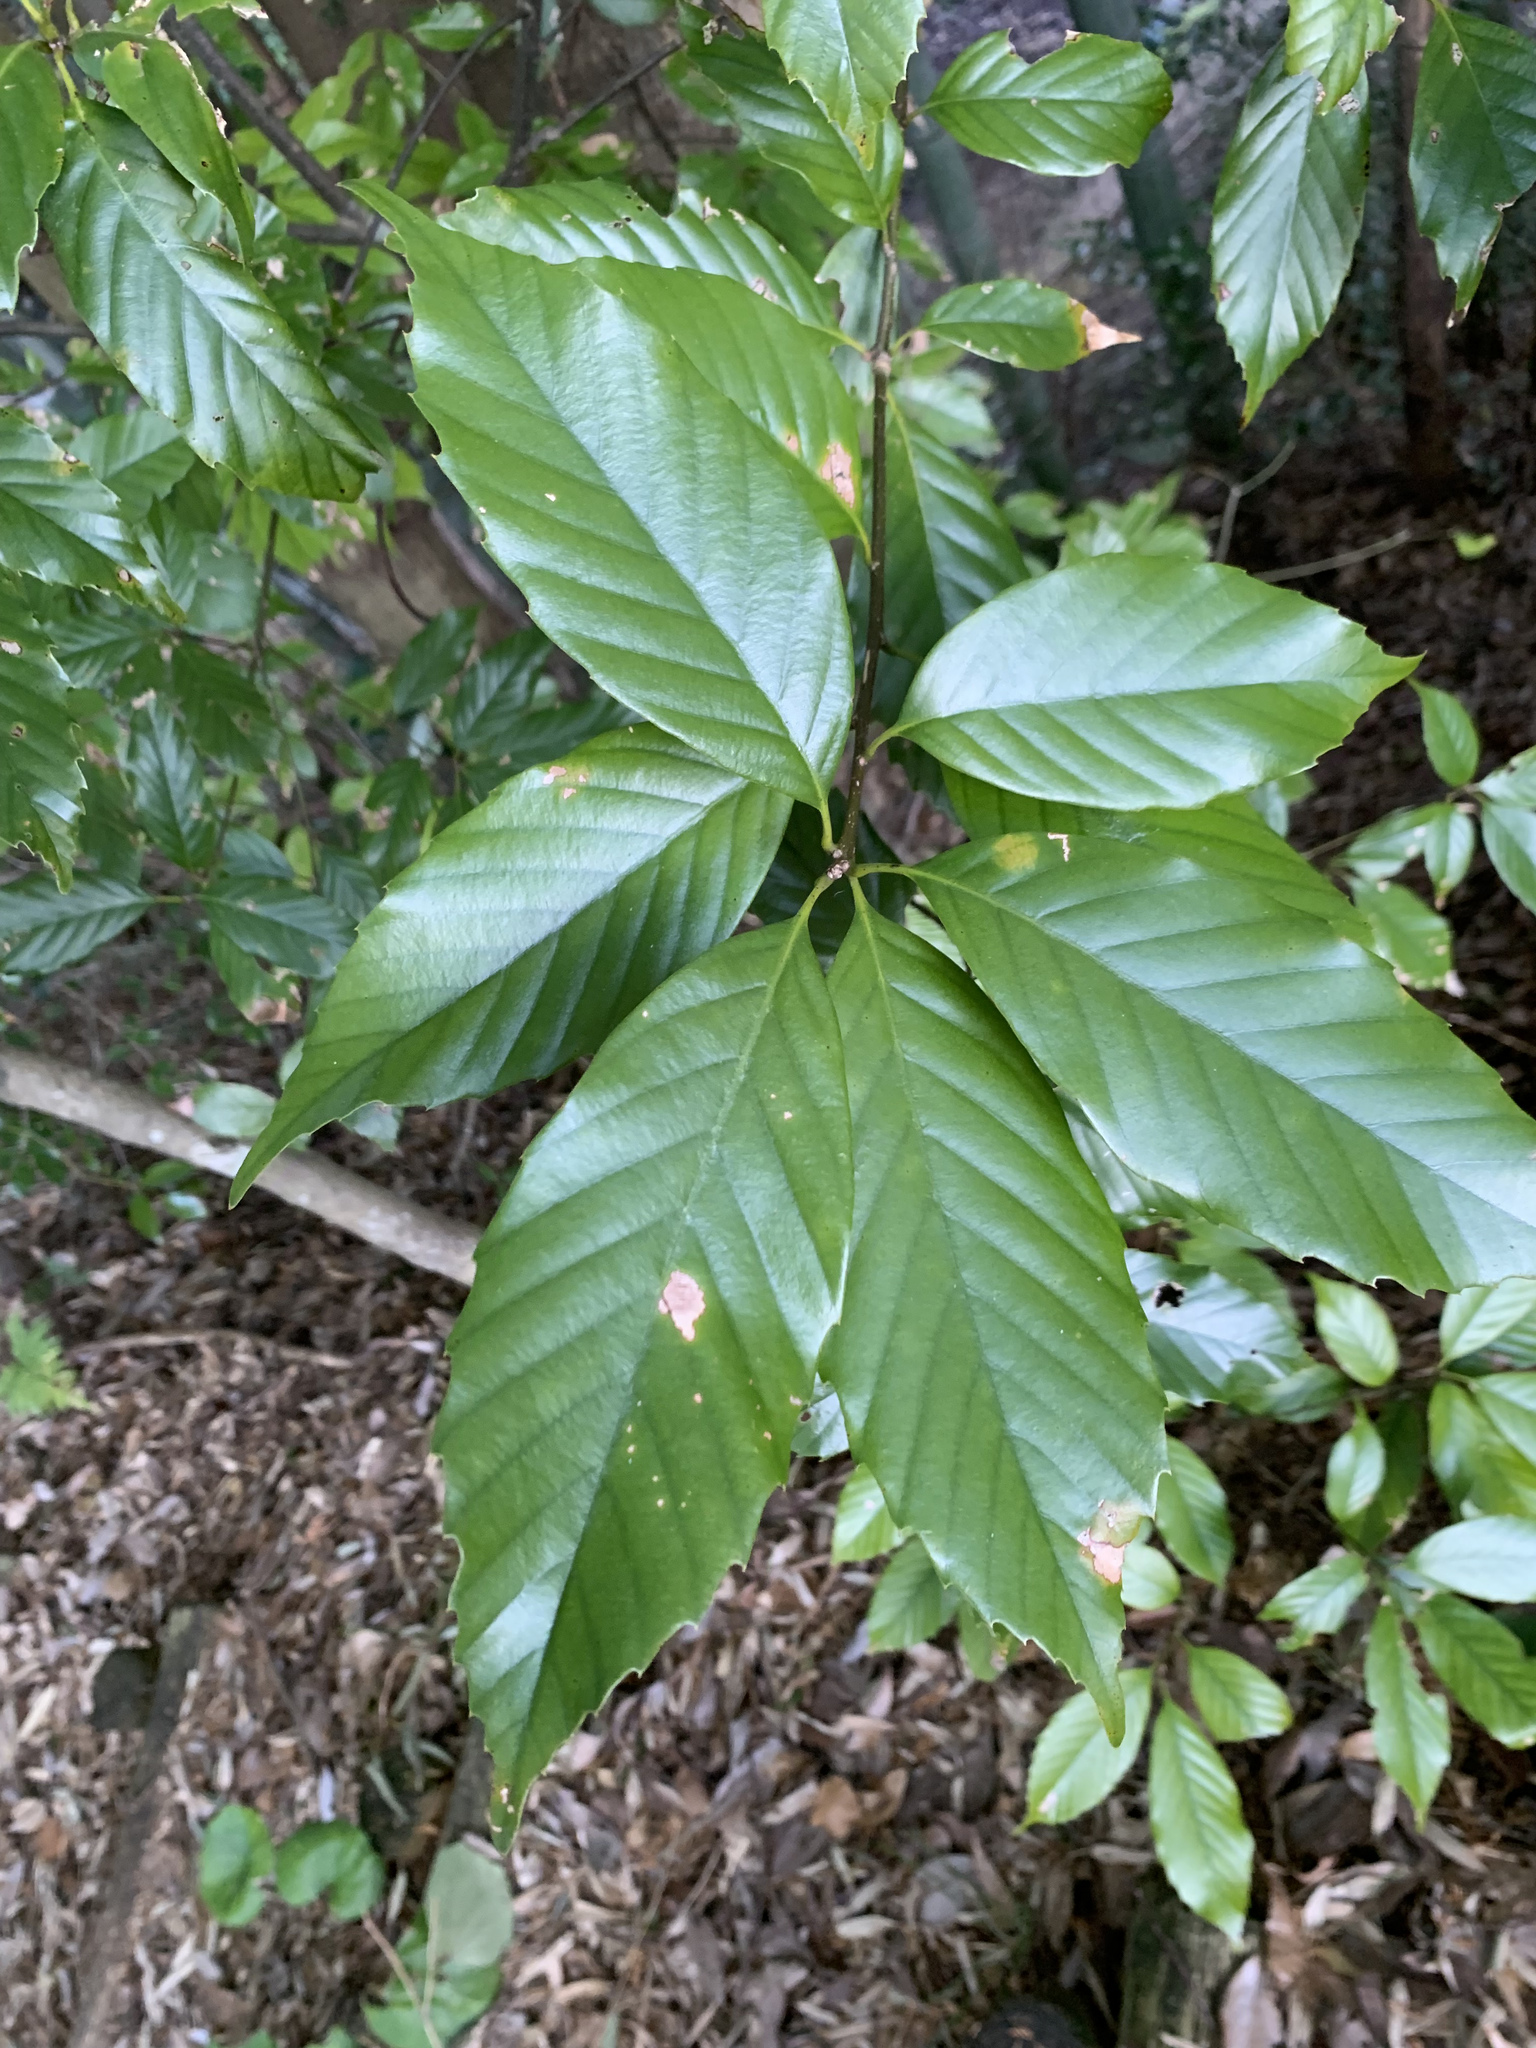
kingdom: Plantae
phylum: Tracheophyta
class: Magnoliopsida
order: Fagales
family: Fagaceae
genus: Quercus
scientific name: Quercus glauca
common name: Ring-cup oak
